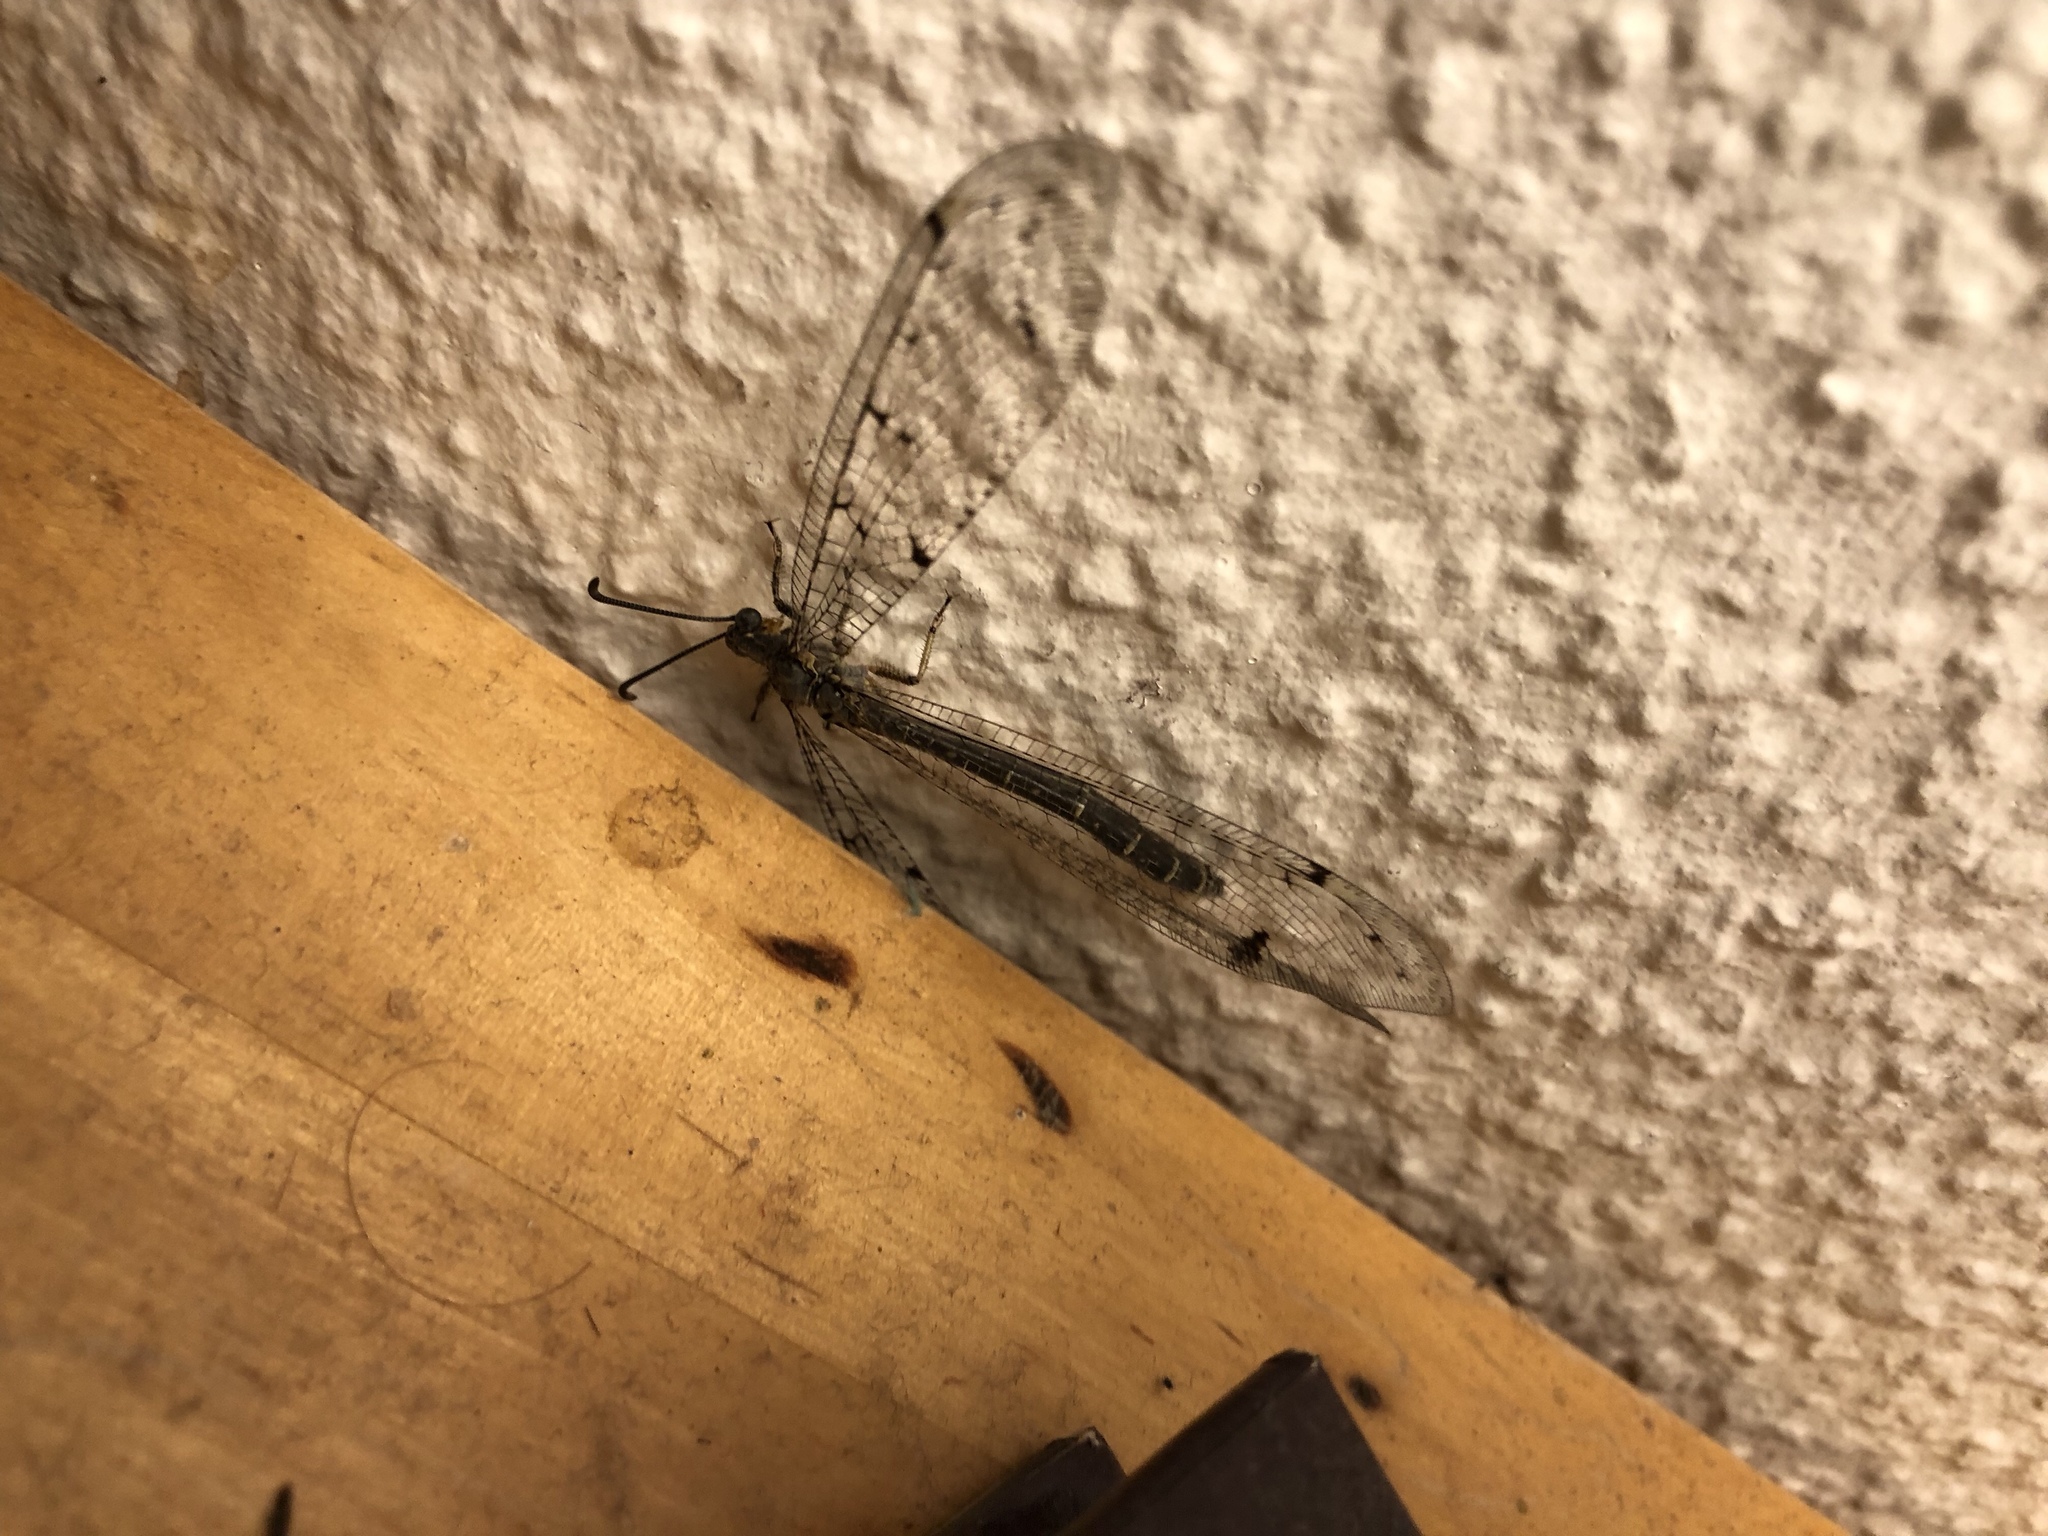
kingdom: Animalia
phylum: Arthropoda
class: Insecta
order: Neuroptera
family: Myrmeleontidae
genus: Distoleon
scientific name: Distoleon tetragrammicus
